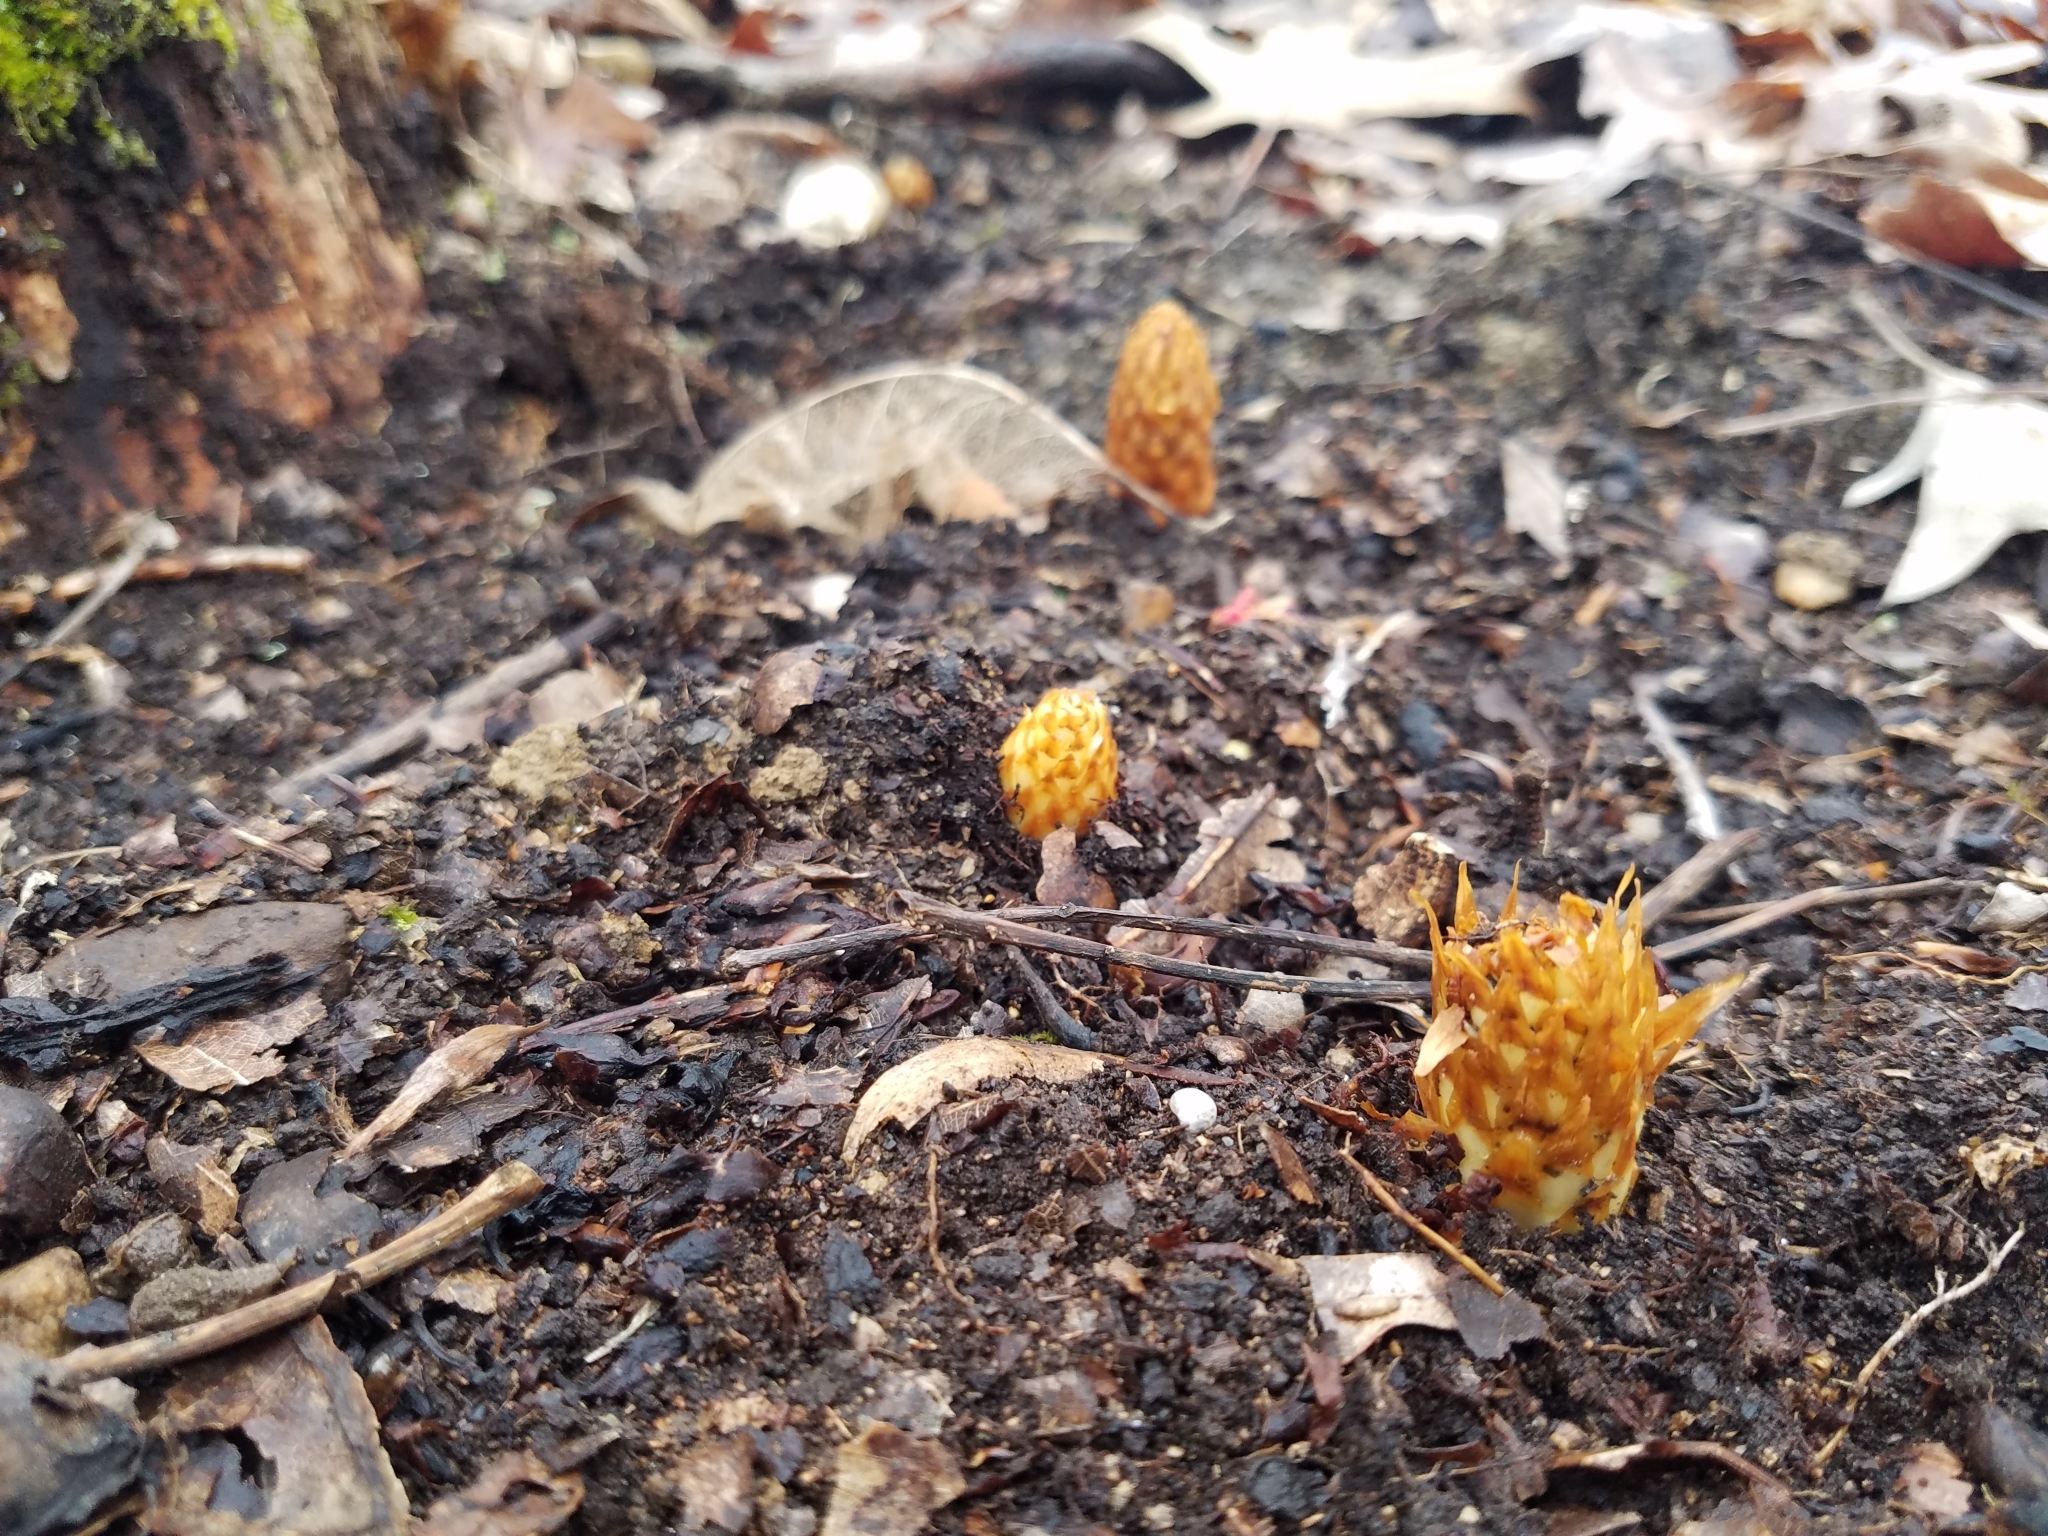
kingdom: Plantae
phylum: Tracheophyta
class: Magnoliopsida
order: Lamiales
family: Orobanchaceae
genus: Conopholis
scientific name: Conopholis americana
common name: American cancer-root
